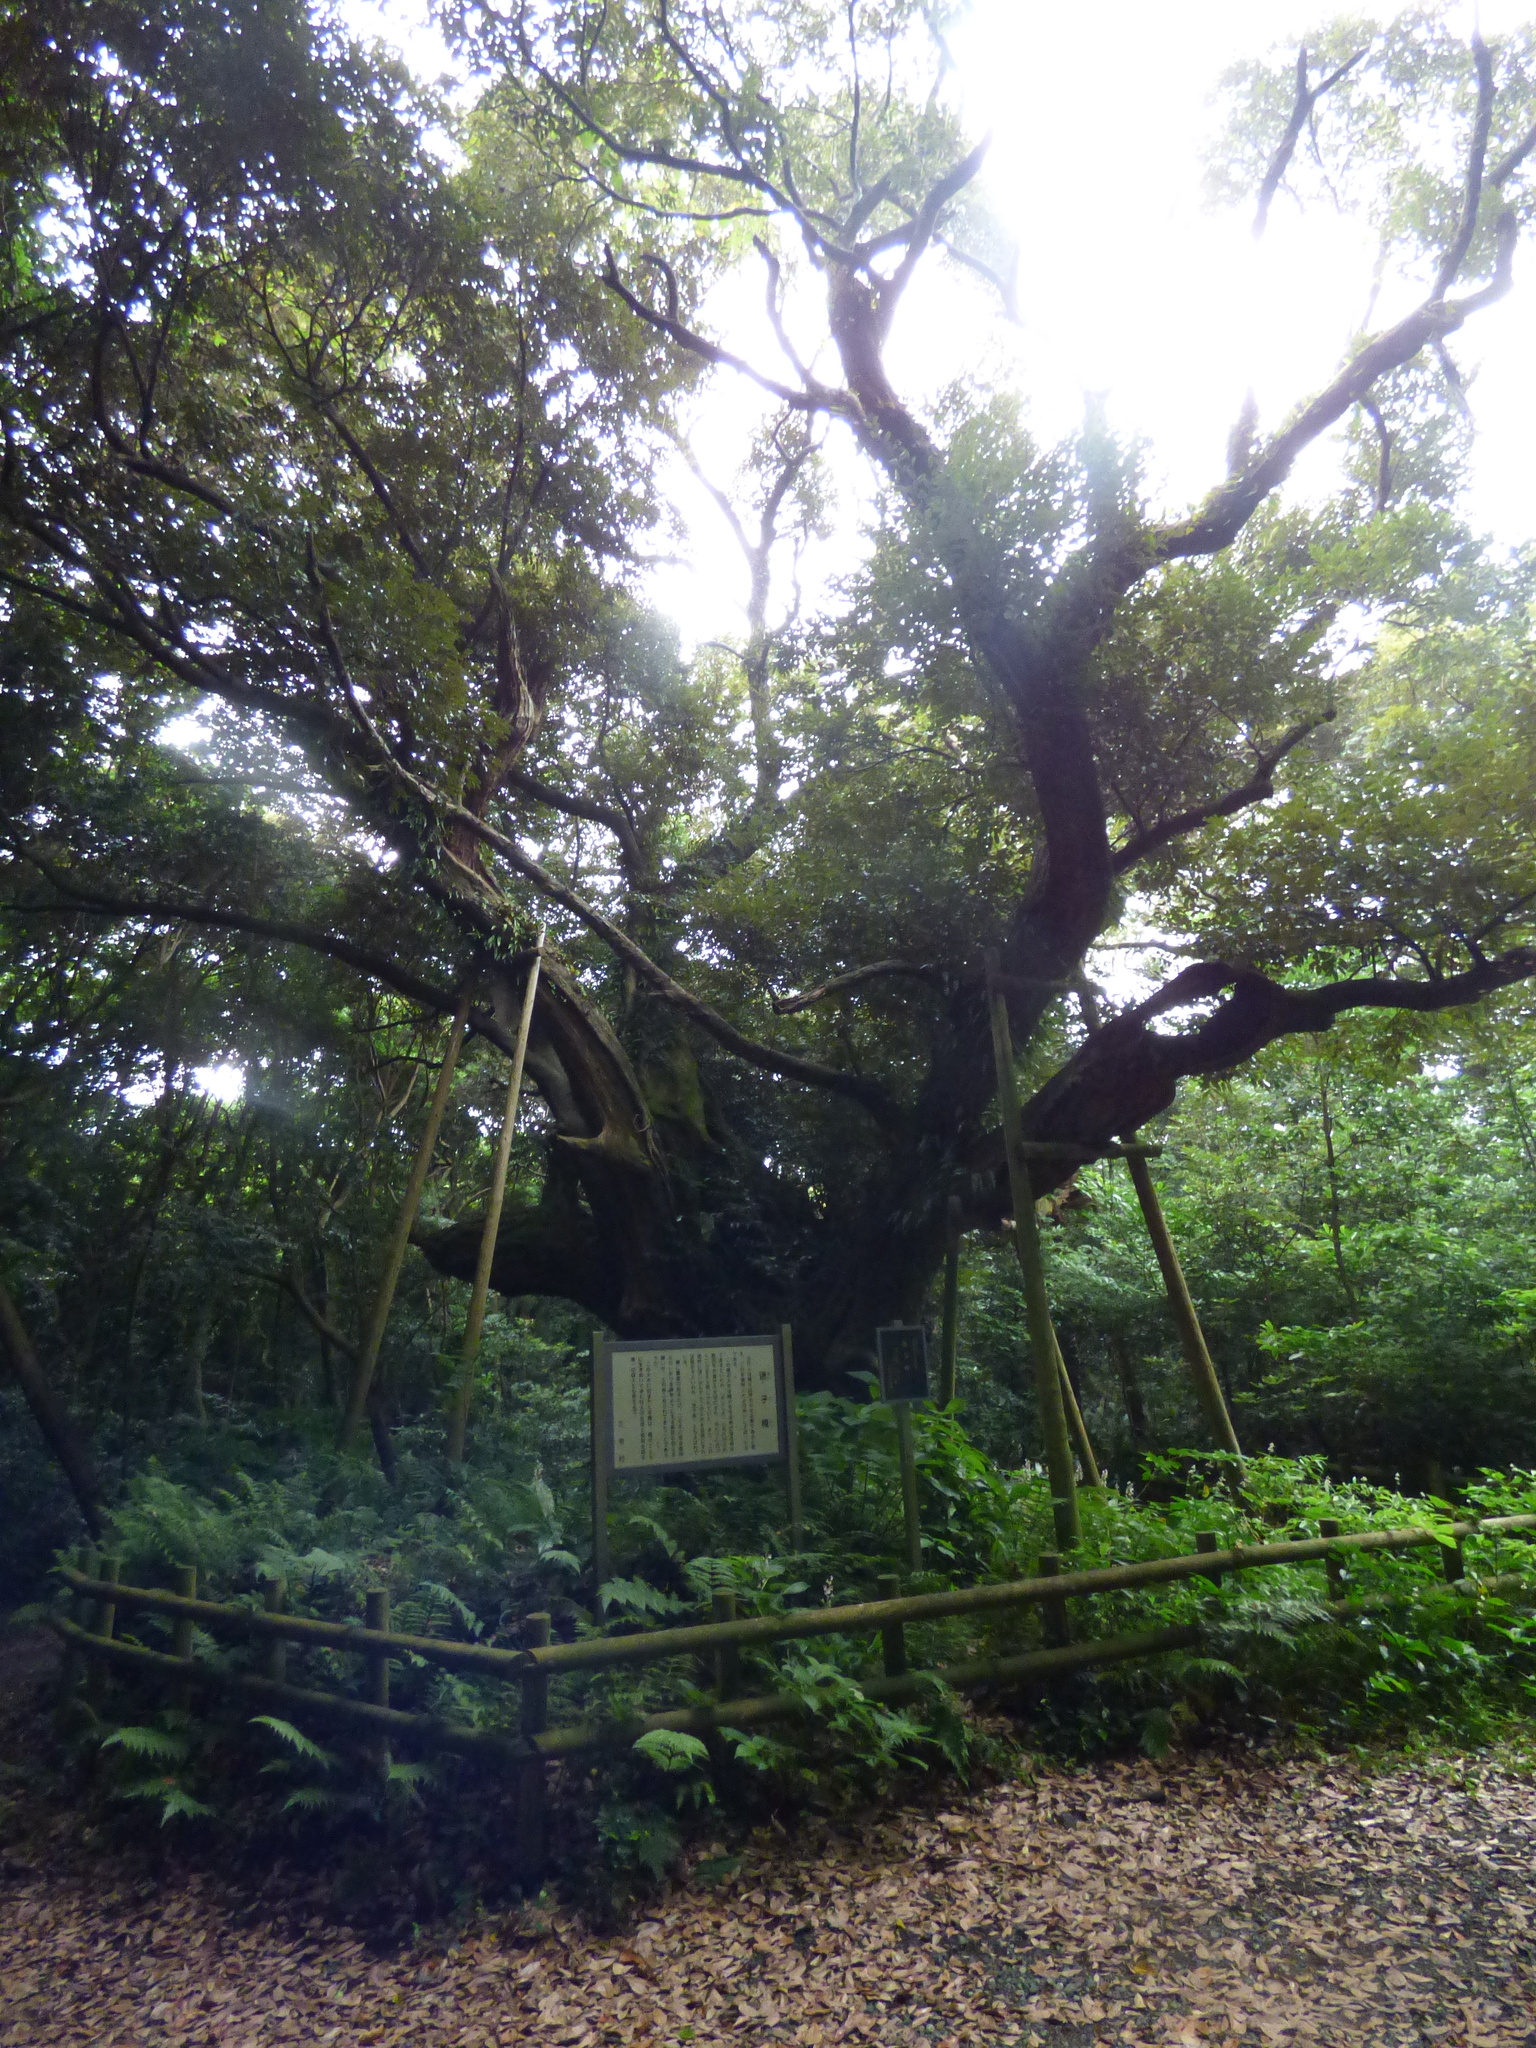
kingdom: Plantae
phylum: Tracheophyta
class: Magnoliopsida
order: Fagales
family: Fagaceae
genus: Castanopsis
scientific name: Castanopsis sieboldii
